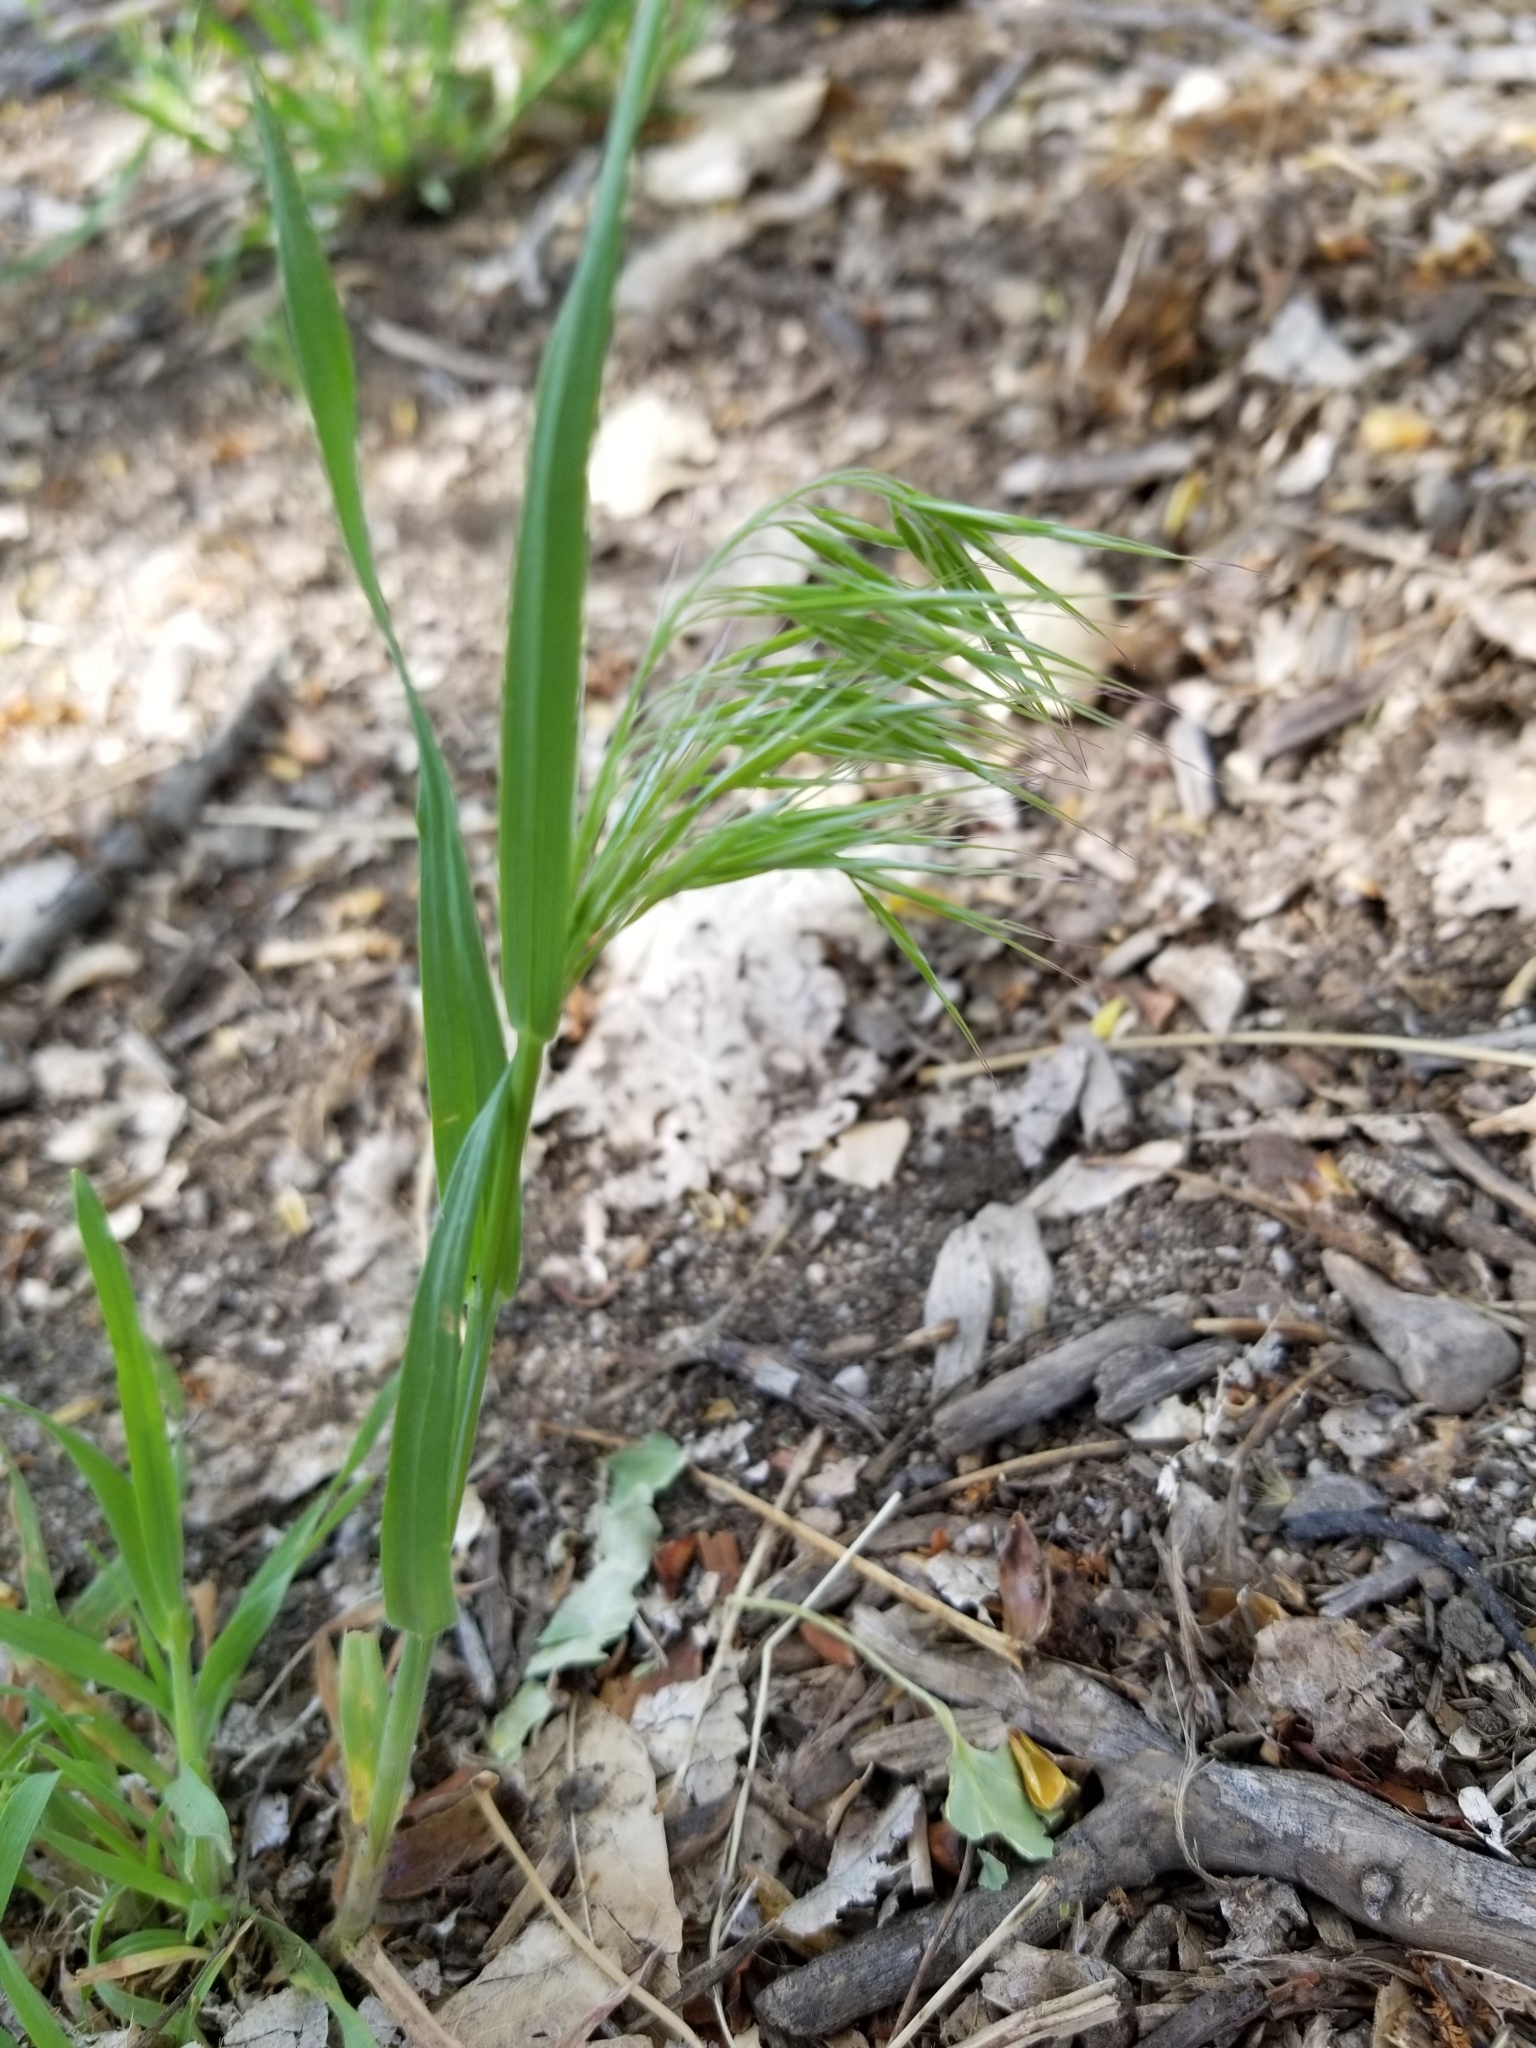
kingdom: Plantae
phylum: Tracheophyta
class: Liliopsida
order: Poales
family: Poaceae
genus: Bromus
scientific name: Bromus tectorum
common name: Cheatgrass
